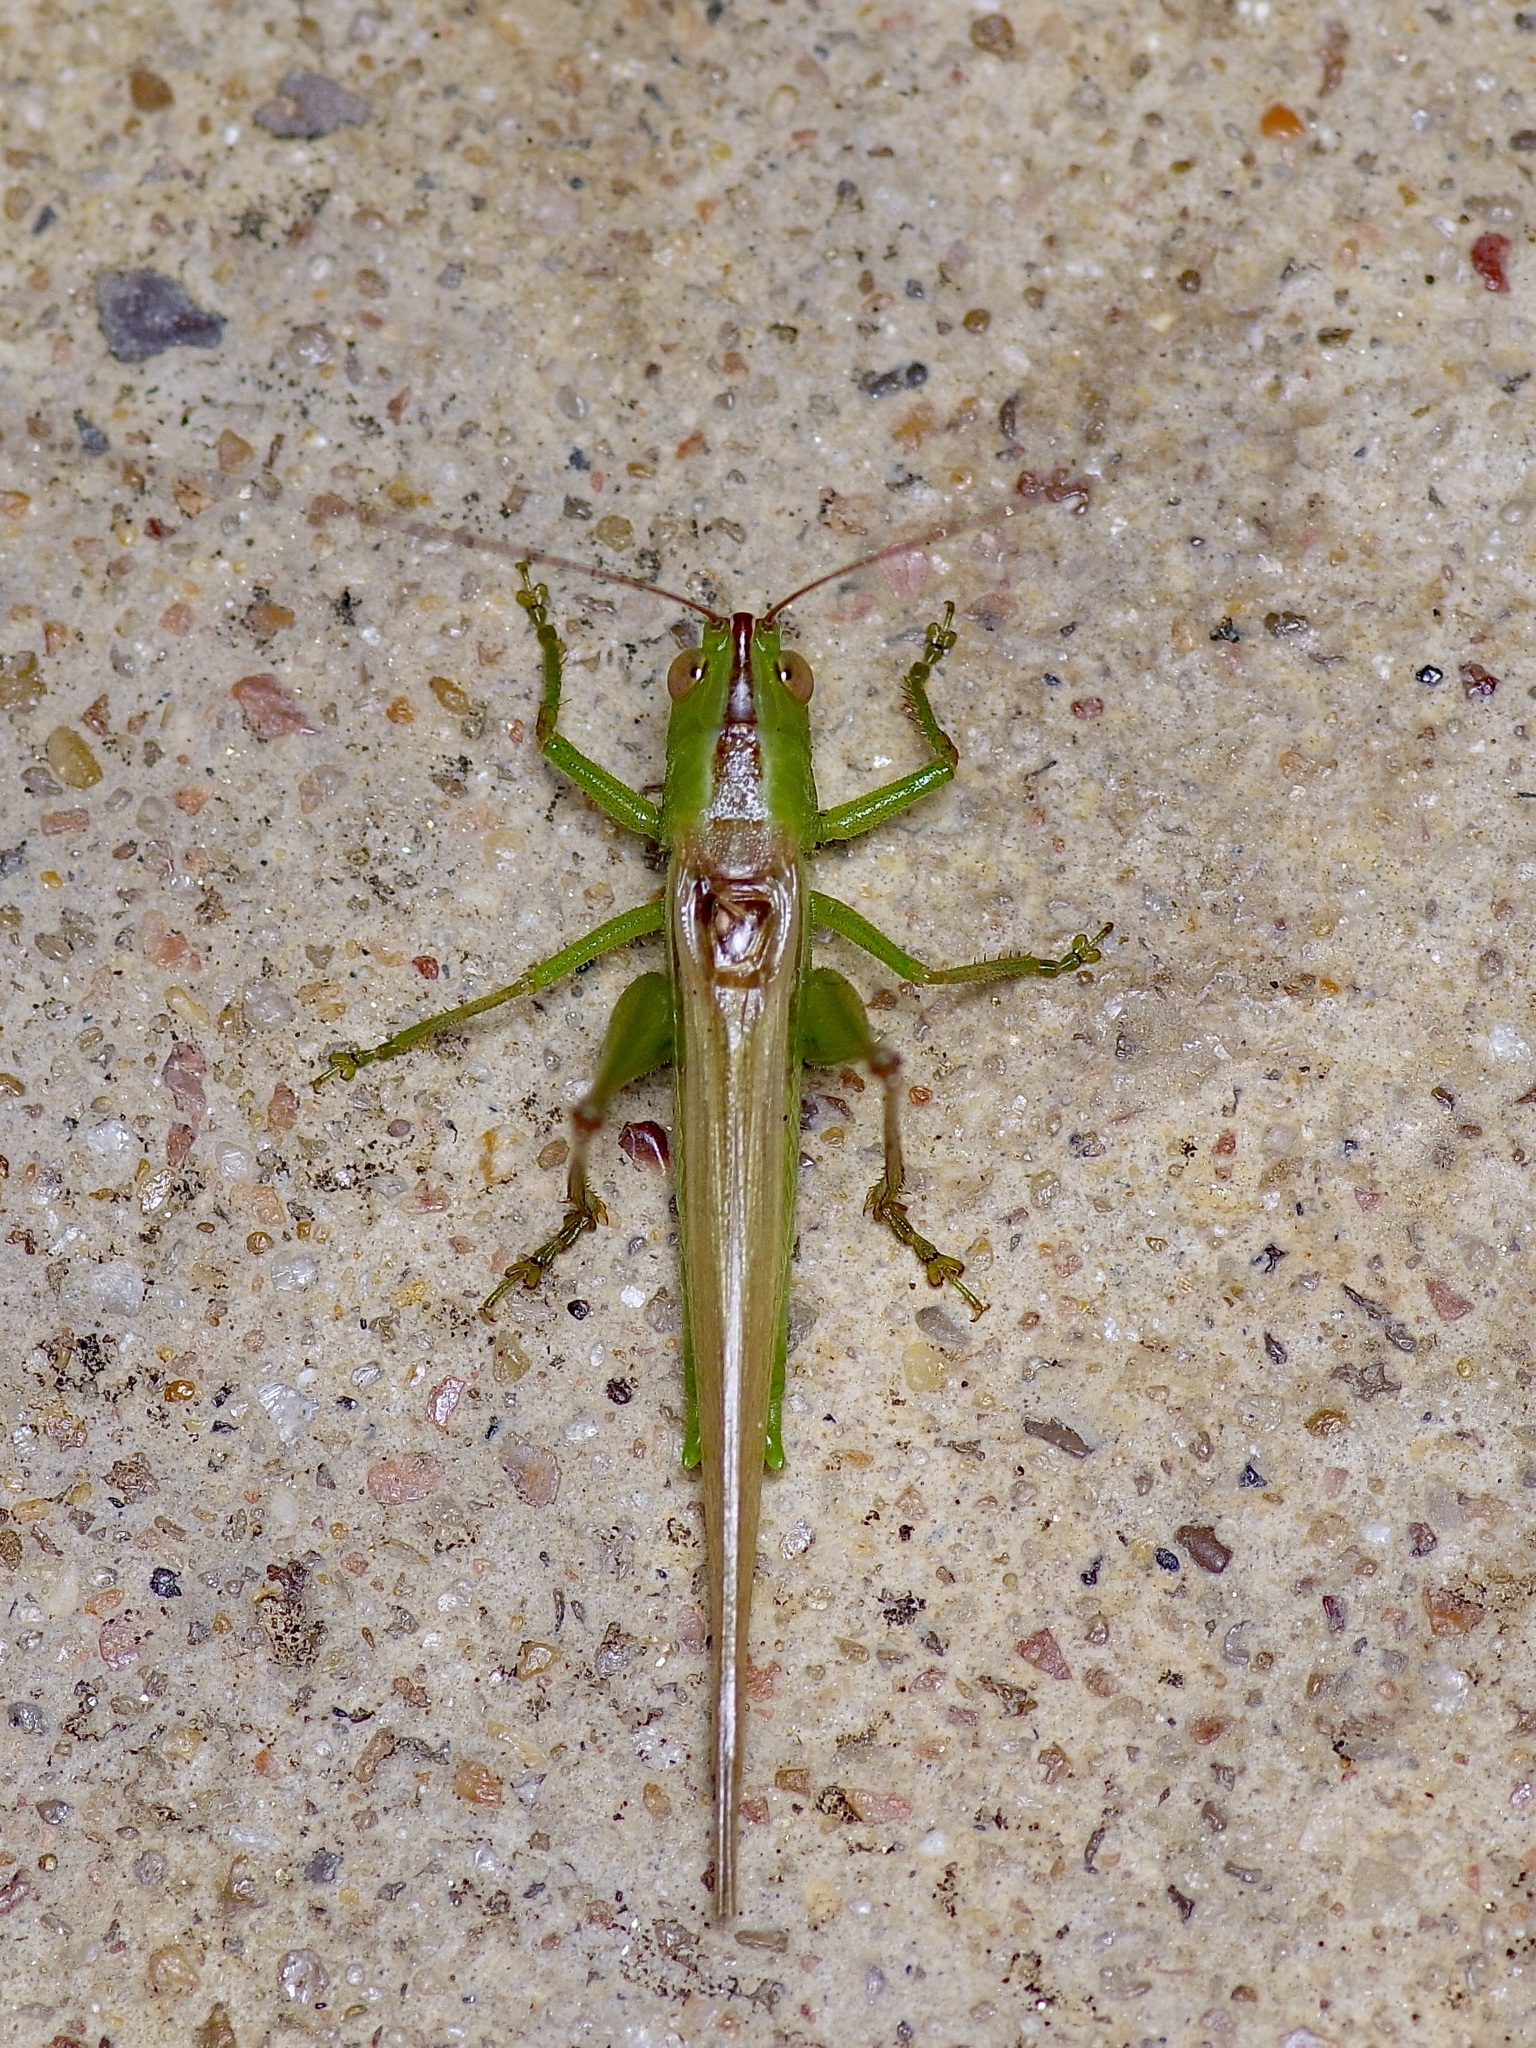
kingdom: Animalia
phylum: Arthropoda
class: Insecta
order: Orthoptera
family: Tettigoniidae
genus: Conocephalus
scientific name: Conocephalus fasciatus
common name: Slender meadow katydid
